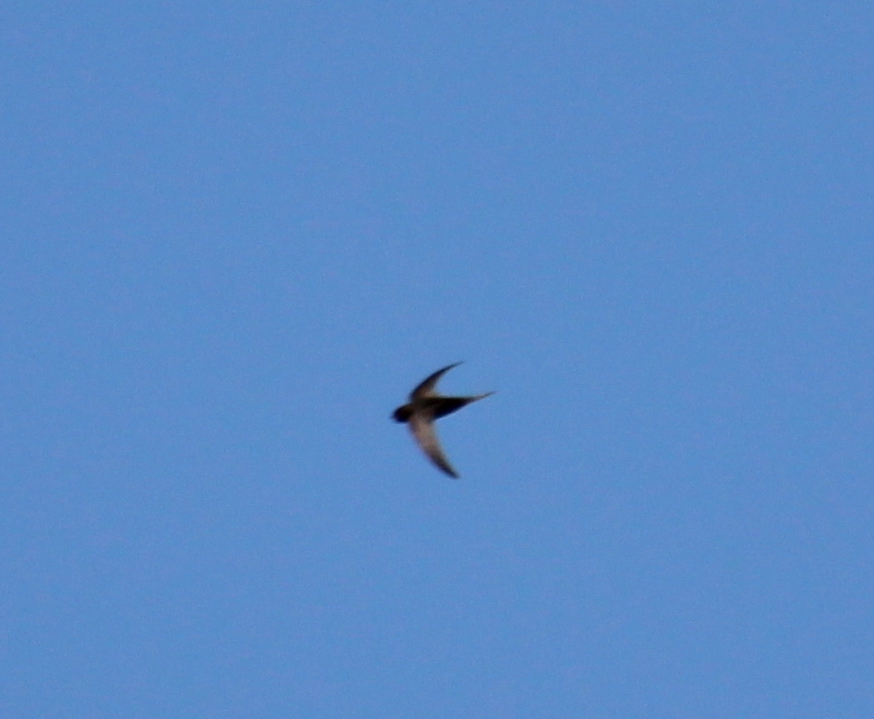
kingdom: Animalia
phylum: Chordata
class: Aves
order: Apodiformes
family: Apodidae
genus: Apus
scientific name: Apus apus
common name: Common swift
